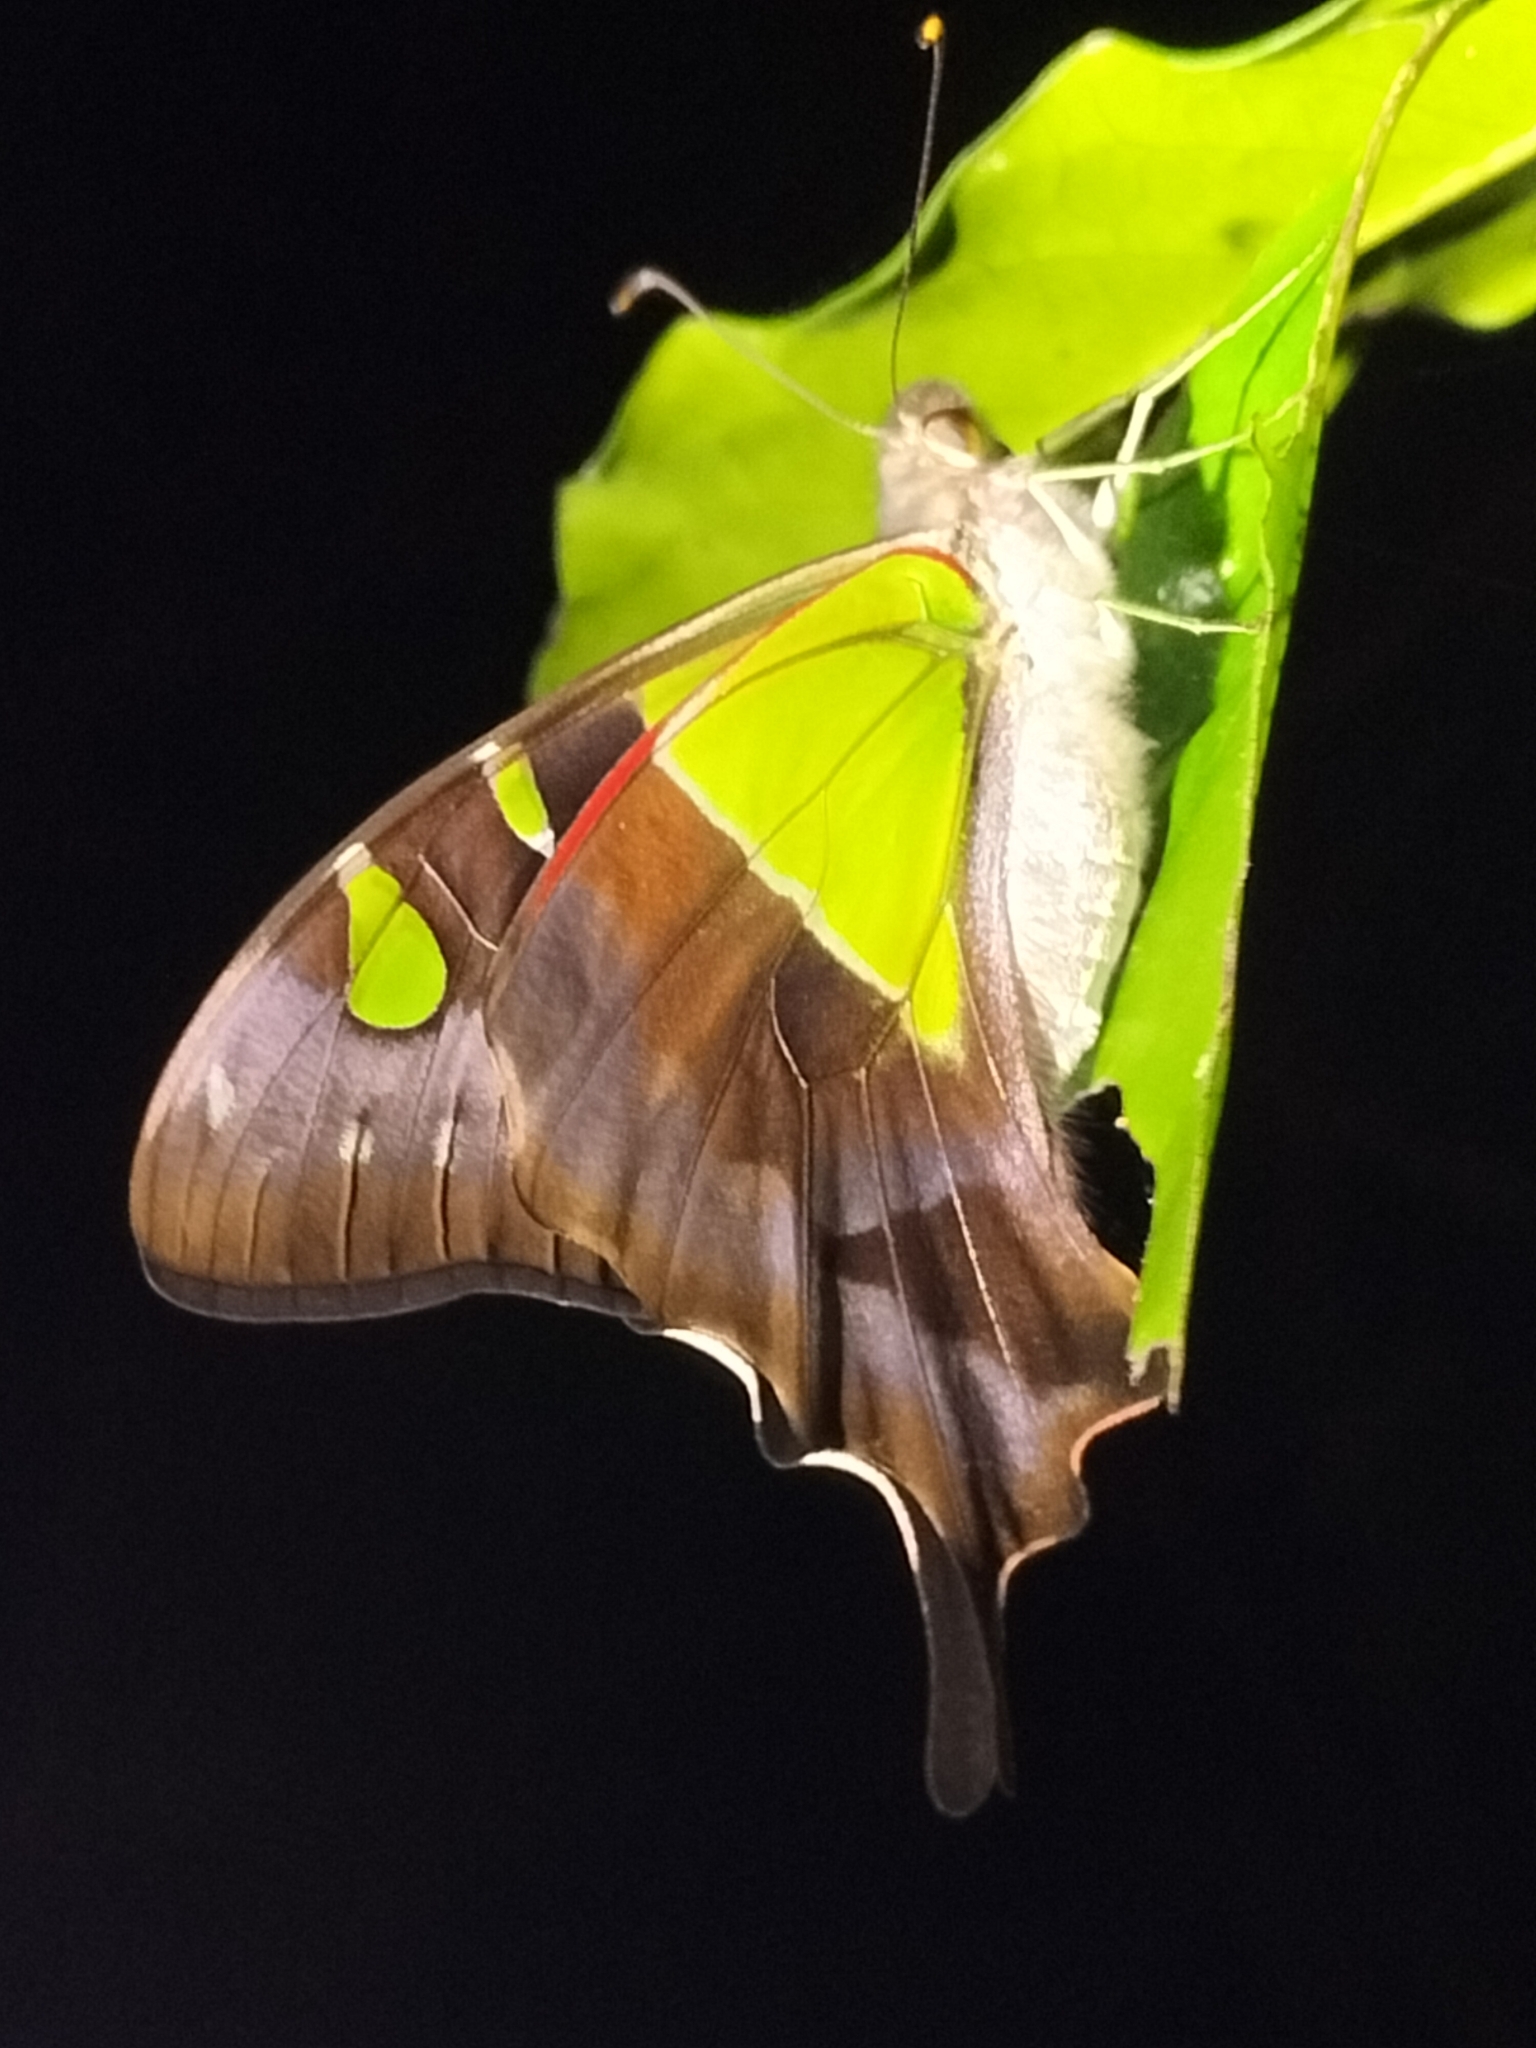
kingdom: Animalia
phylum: Arthropoda
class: Insecta
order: Lepidoptera
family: Papilionidae
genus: Graphium
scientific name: Graphium macleayanus
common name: Macleay's swallowtail
